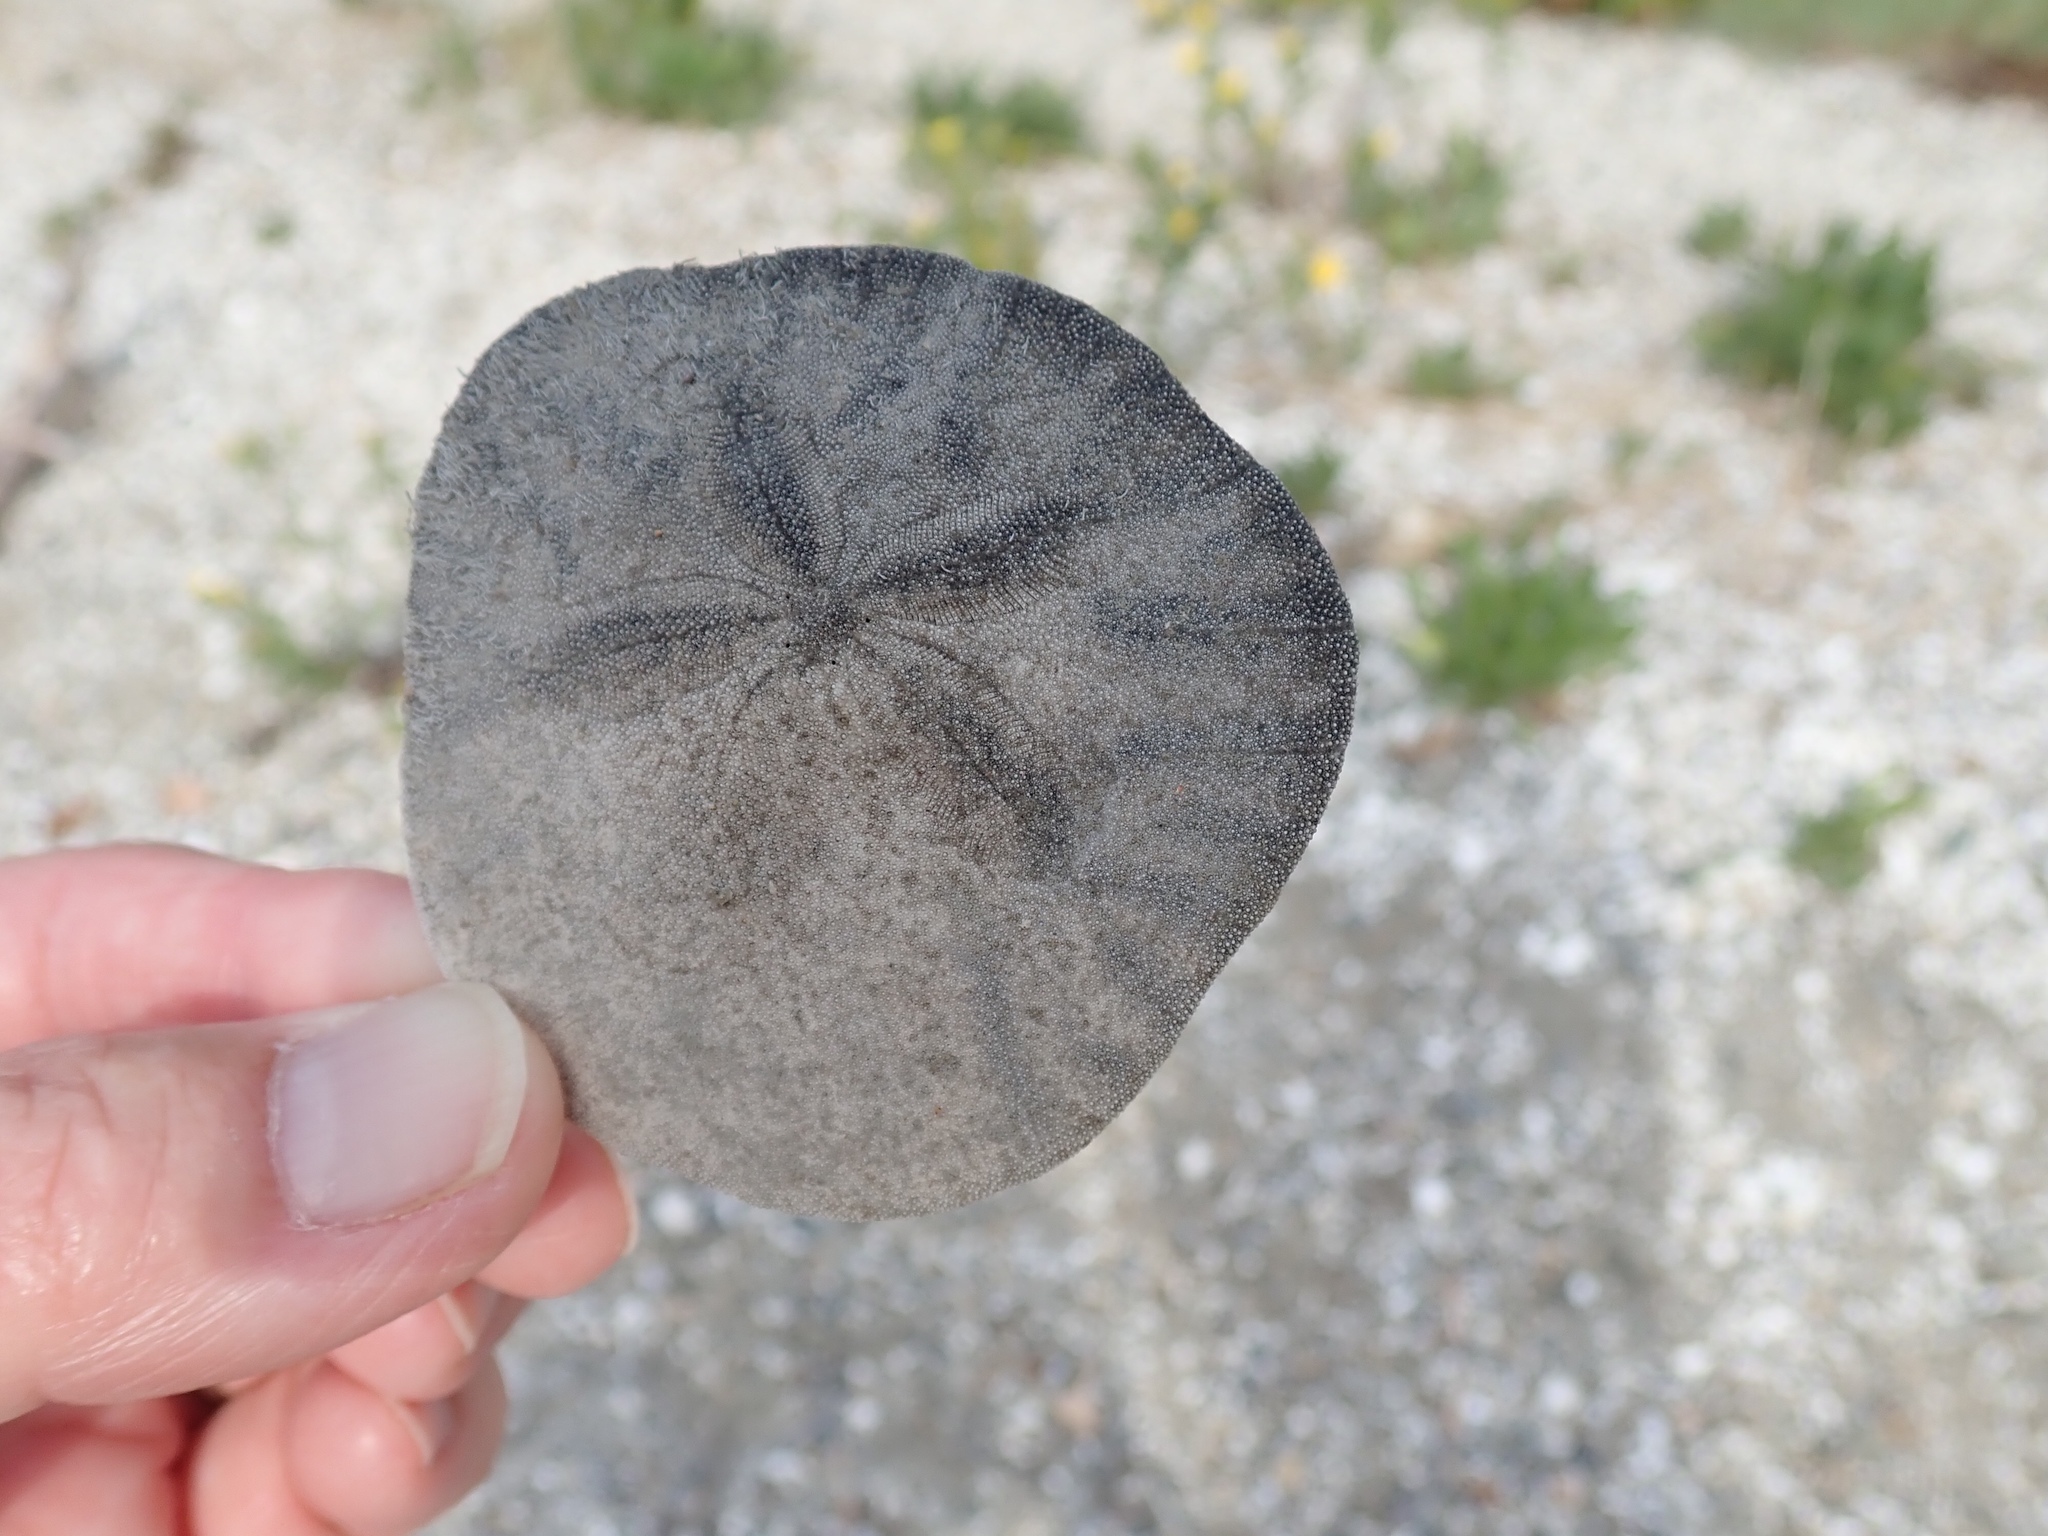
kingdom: Animalia
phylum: Echinodermata
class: Echinoidea
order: Echinolampadacea
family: Dendrasteridae
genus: Dendraster
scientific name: Dendraster excentricus
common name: Eccentric sand dollar sea urchin
